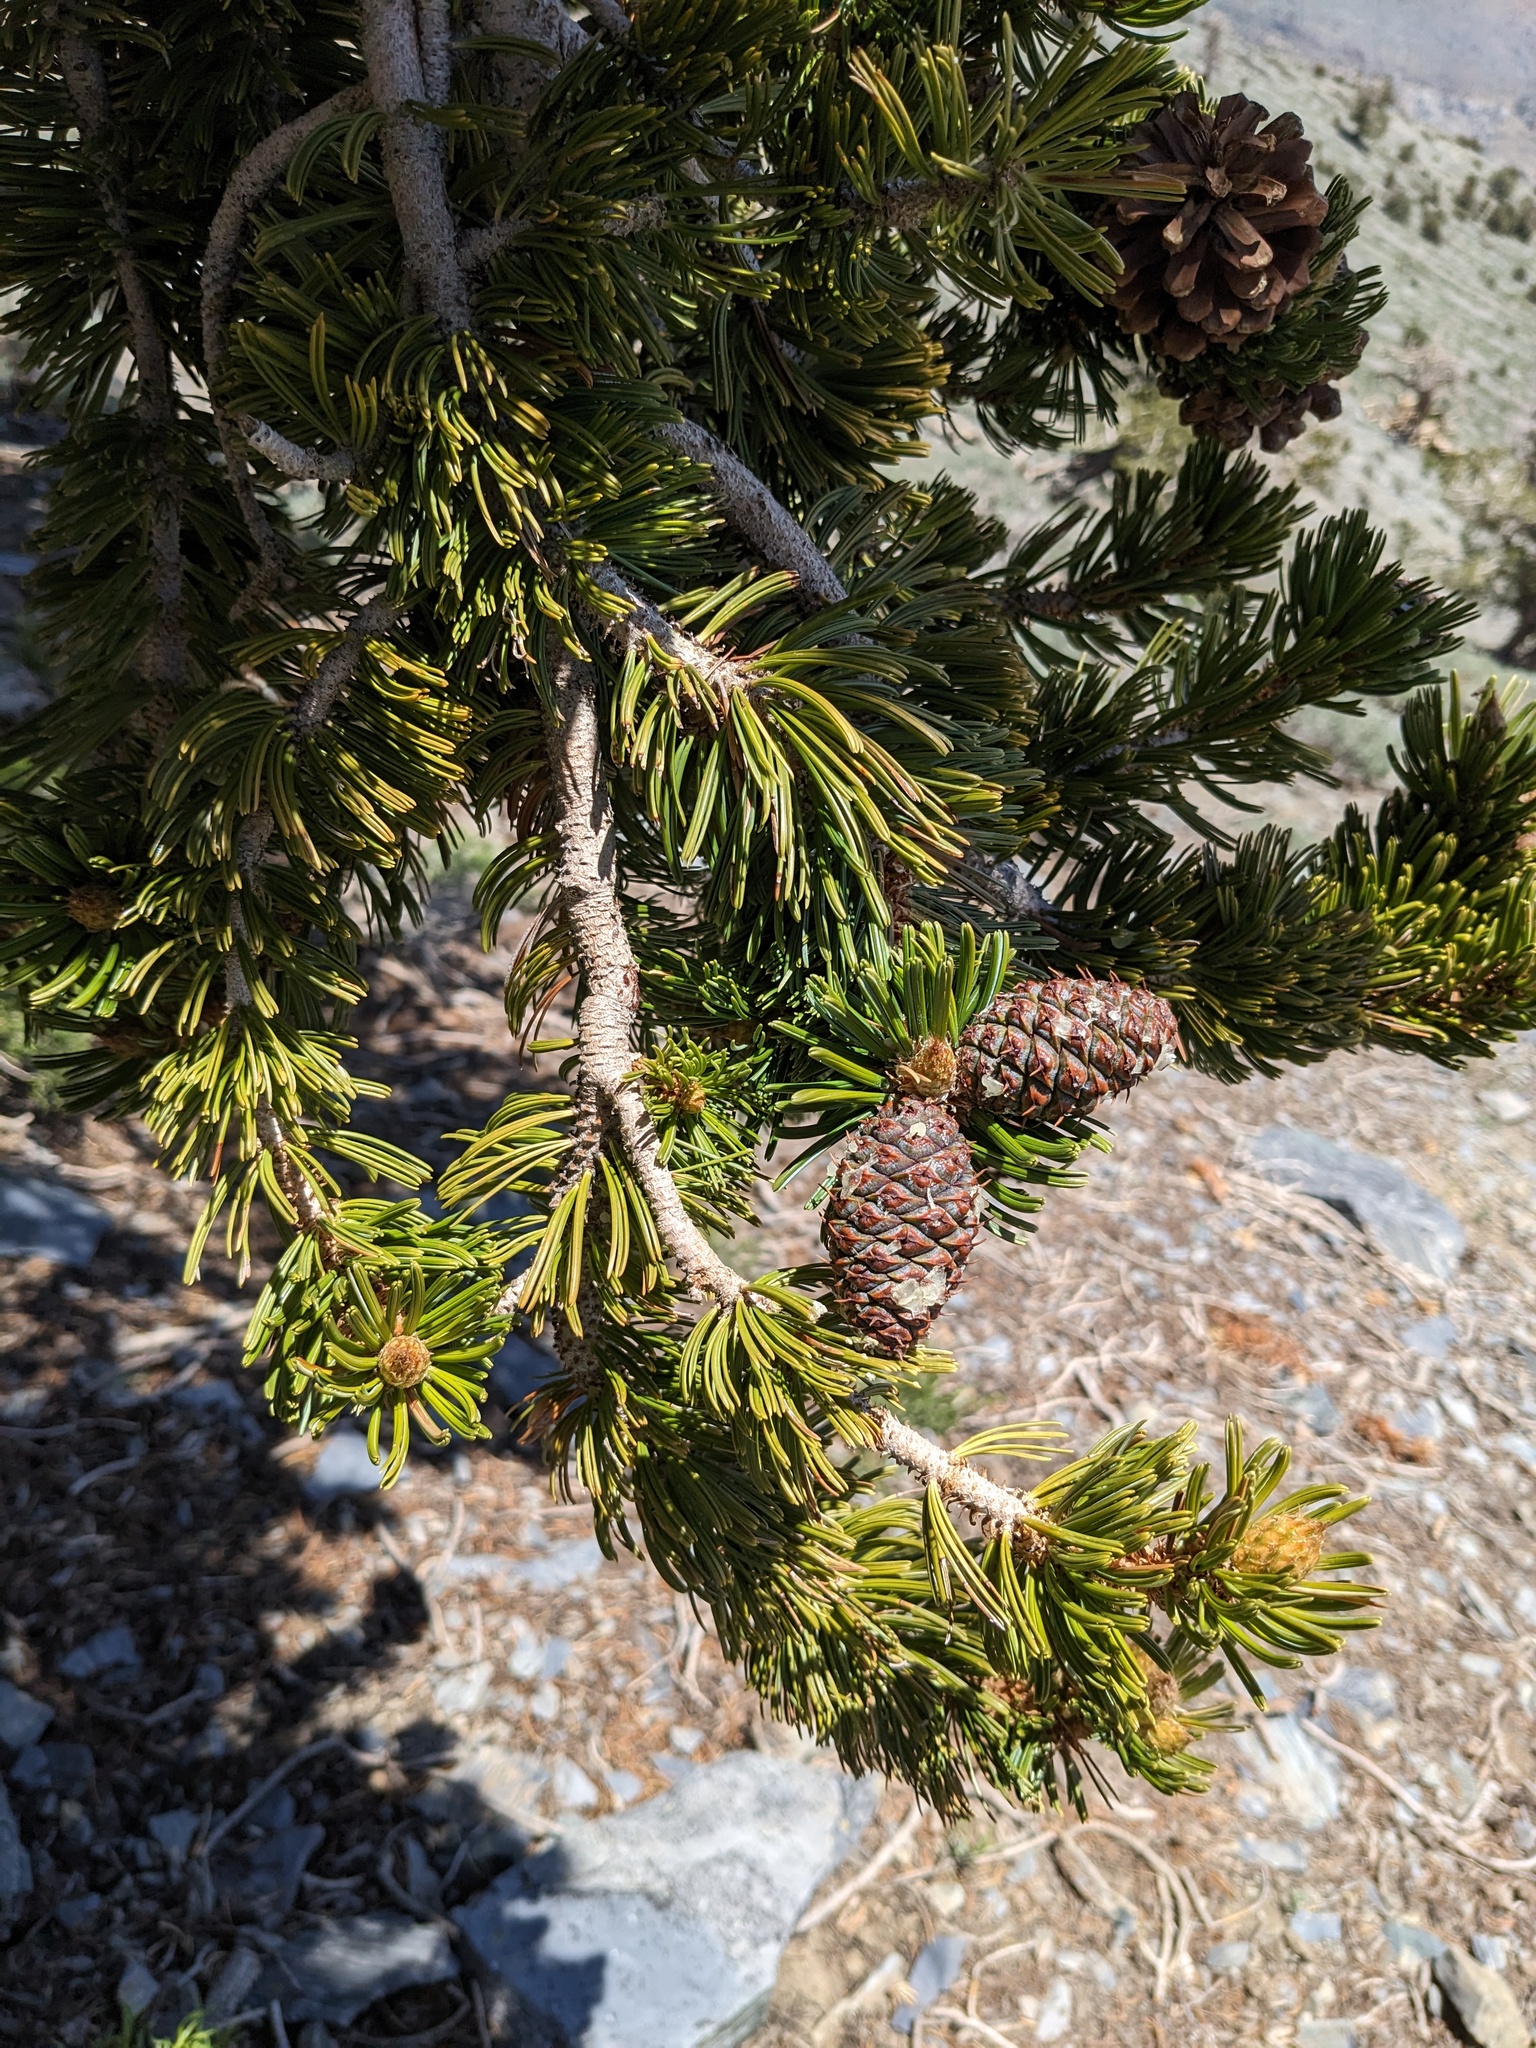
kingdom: Plantae
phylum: Tracheophyta
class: Pinopsida
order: Pinales
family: Pinaceae
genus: Pinus
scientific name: Pinus longaeva
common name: Intermountain bristlecone pine
